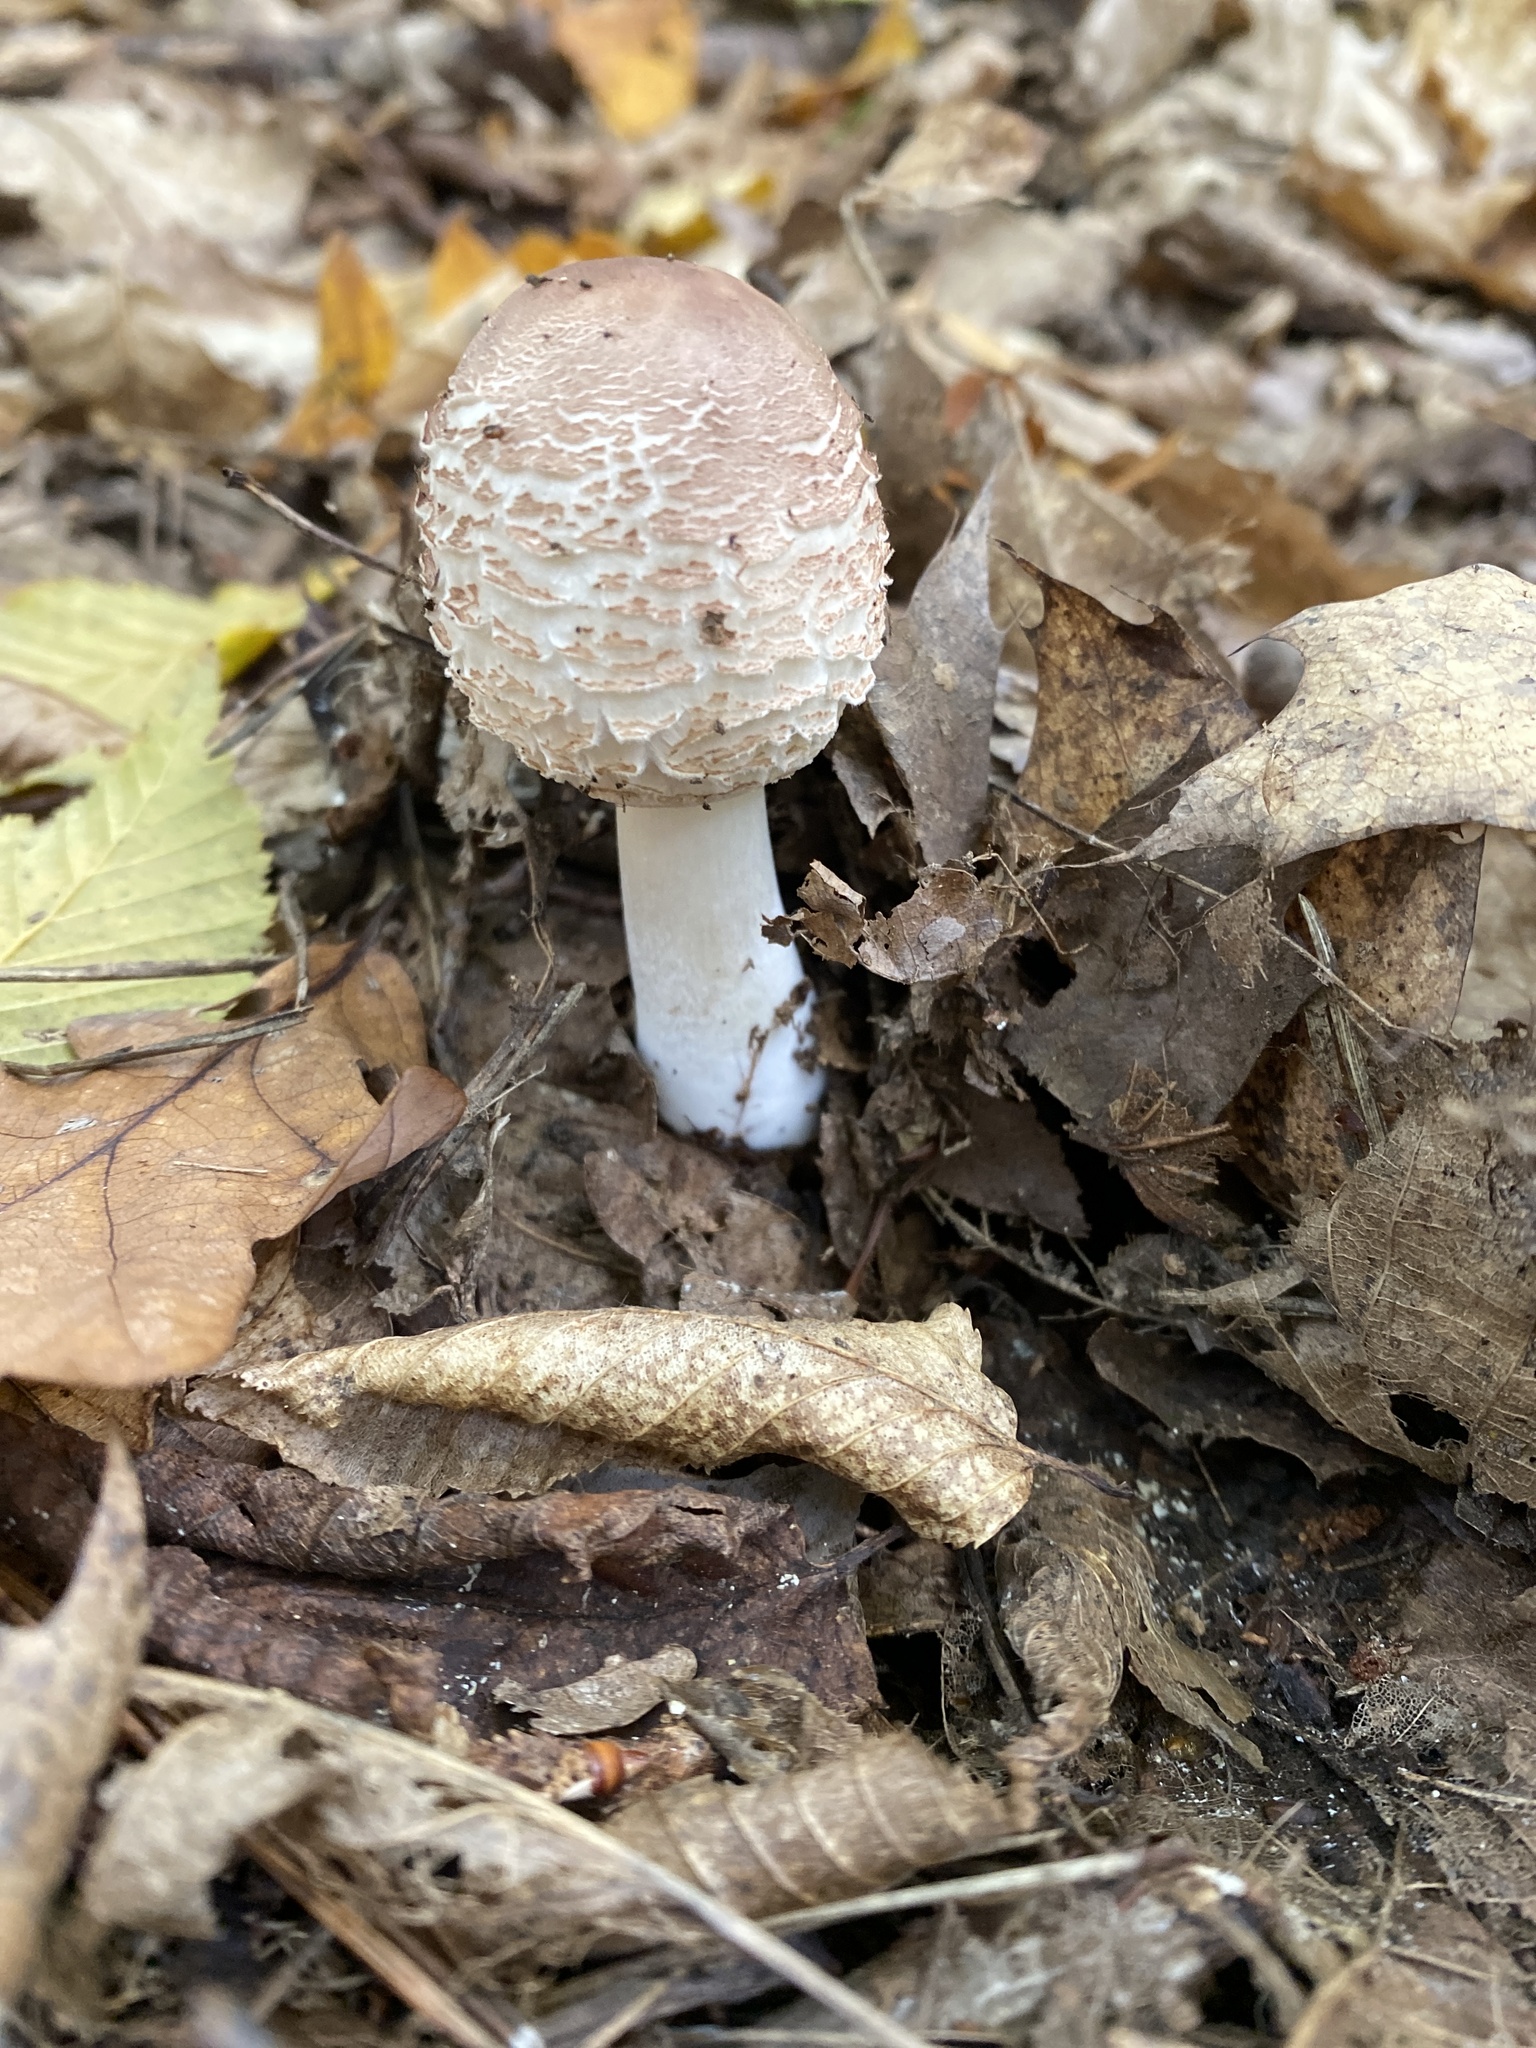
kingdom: Fungi
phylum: Basidiomycota
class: Agaricomycetes
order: Agaricales
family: Agaricaceae
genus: Chlorophyllum
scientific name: Chlorophyllum rhacodes
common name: Shaggy parasol
